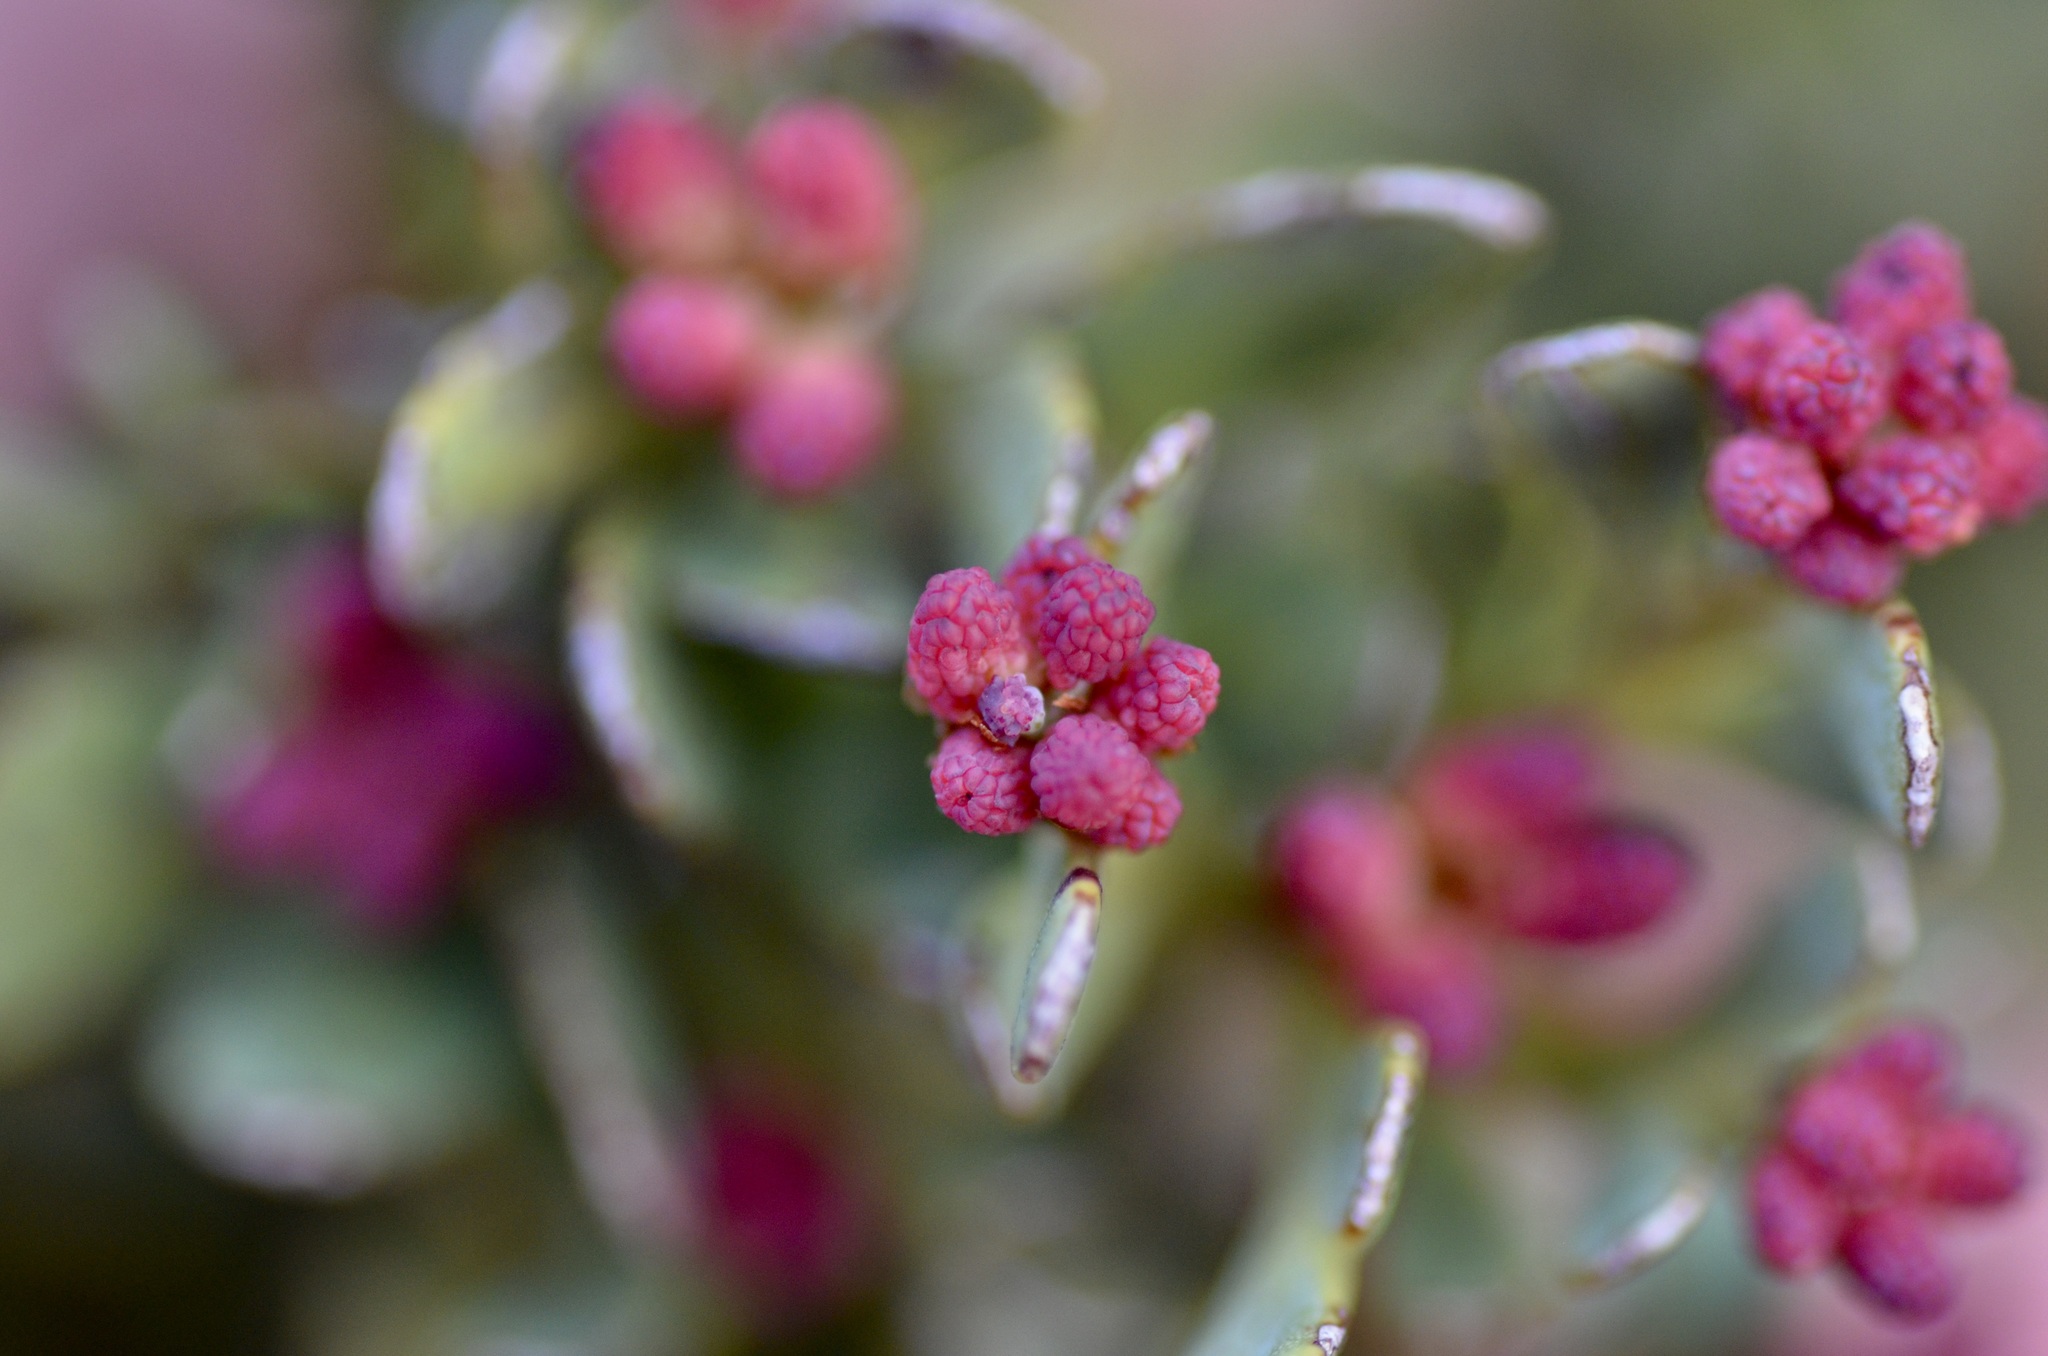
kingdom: Plantae
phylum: Tracheophyta
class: Pinopsida
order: Pinales
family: Phyllocladaceae
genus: Phyllocladus
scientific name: Phyllocladus trichomanoides
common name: Celery pine
